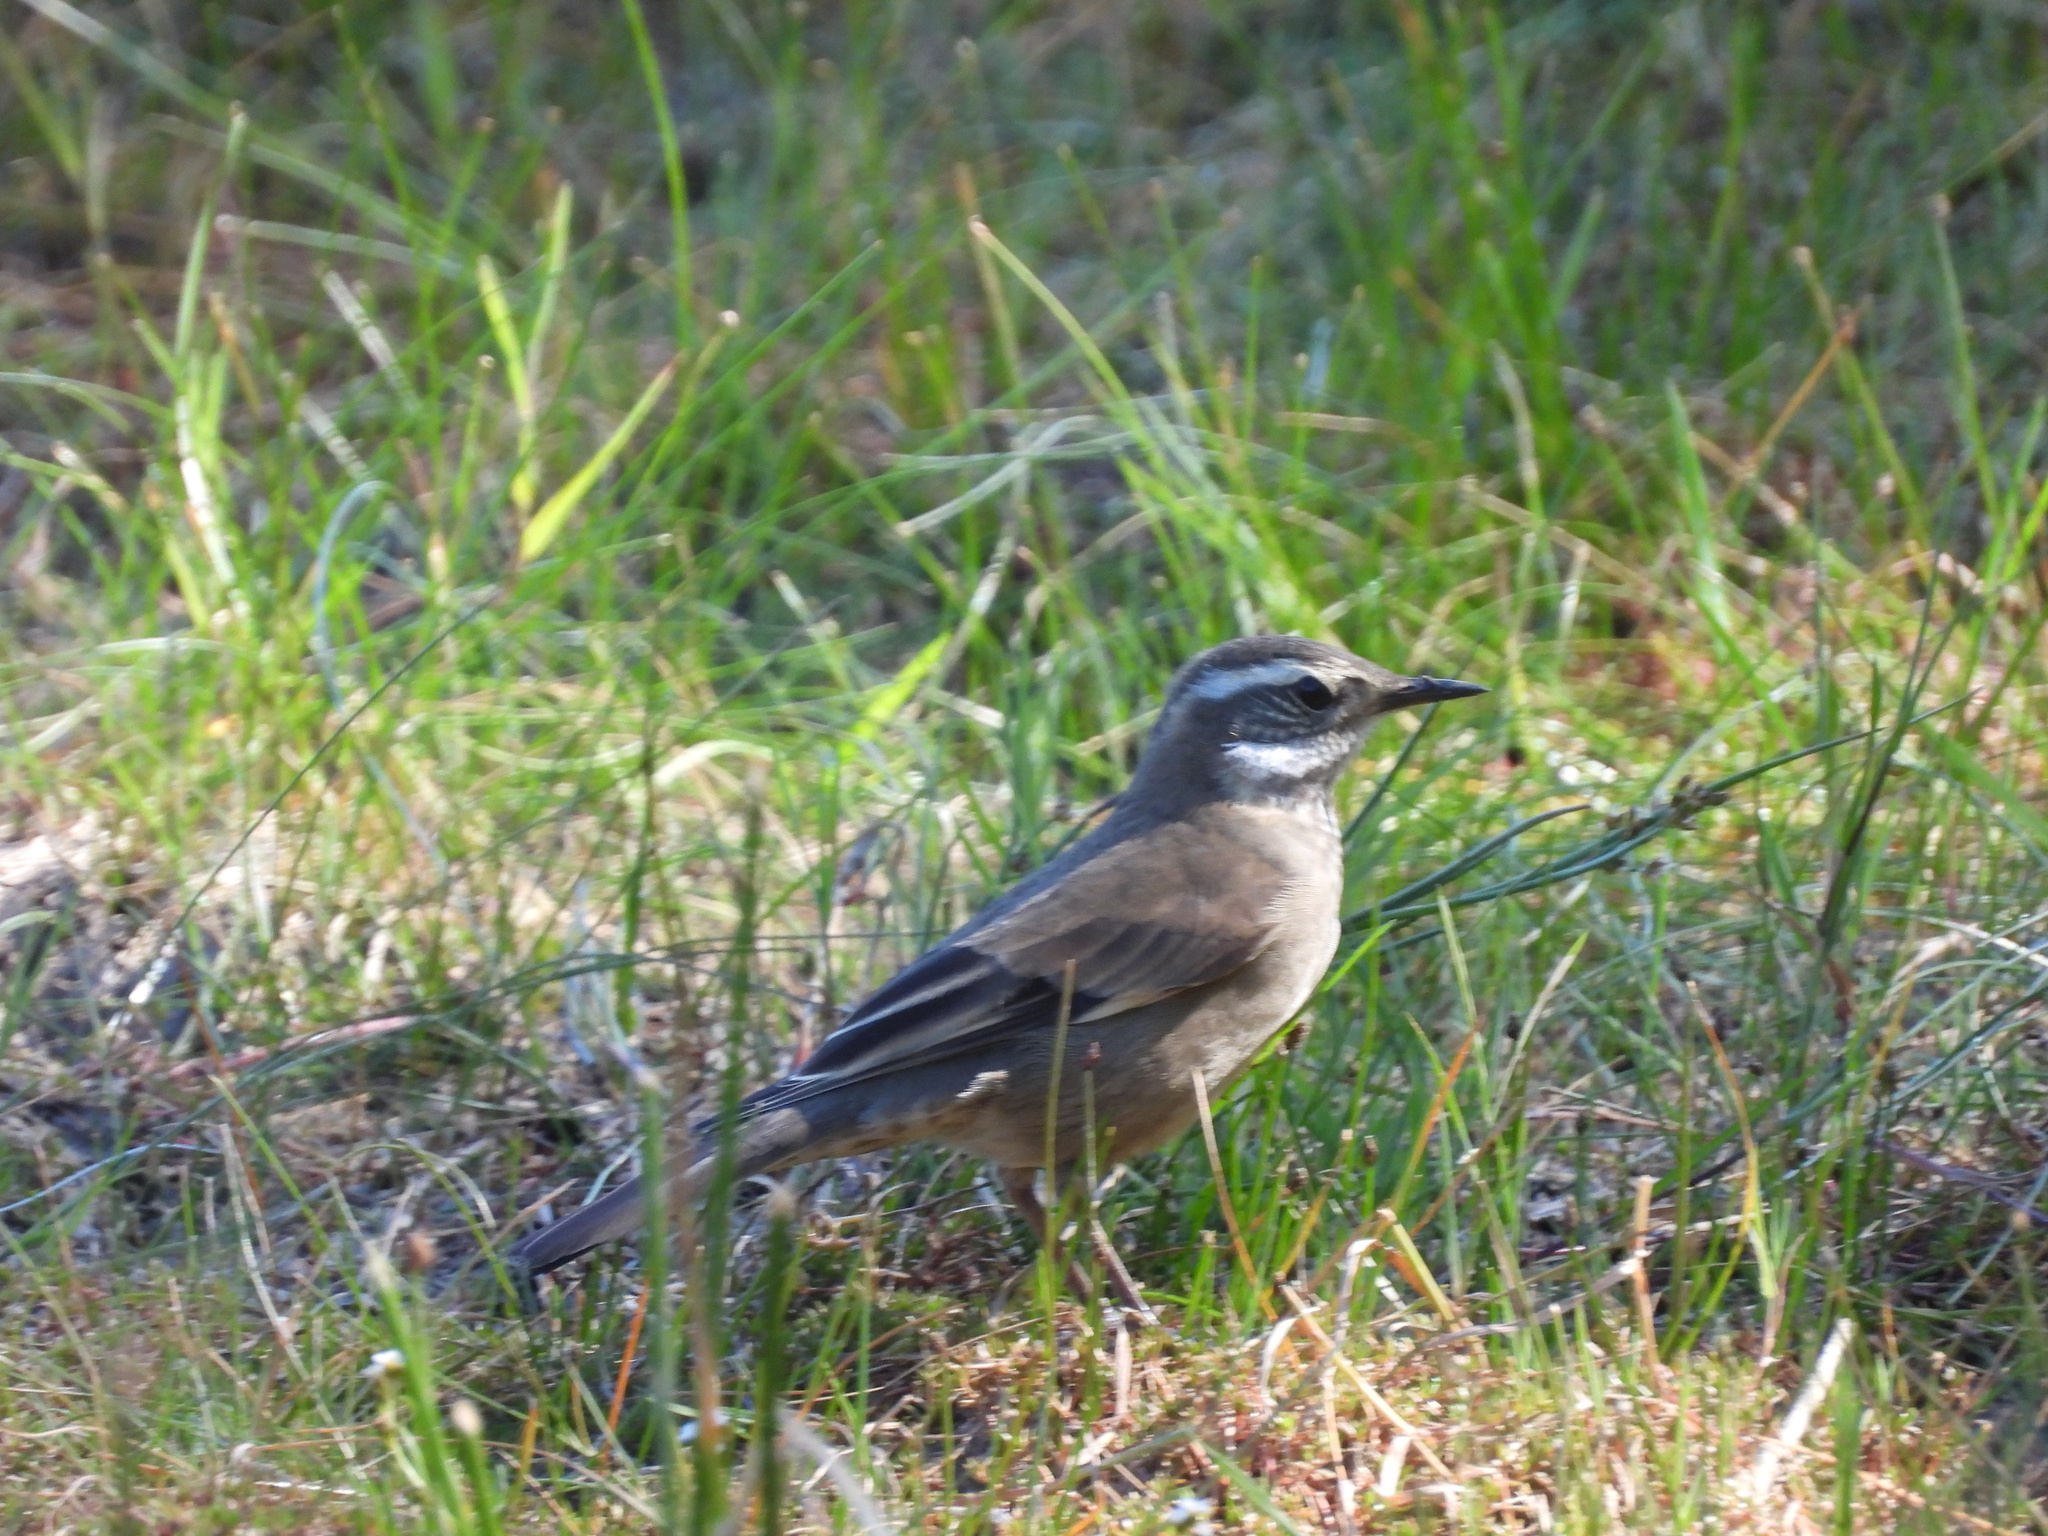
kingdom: Animalia
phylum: Chordata
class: Aves
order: Passeriformes
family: Furnariidae
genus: Cinclodes
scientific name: Cinclodes fuscus
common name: Buff-winged cinclodes
